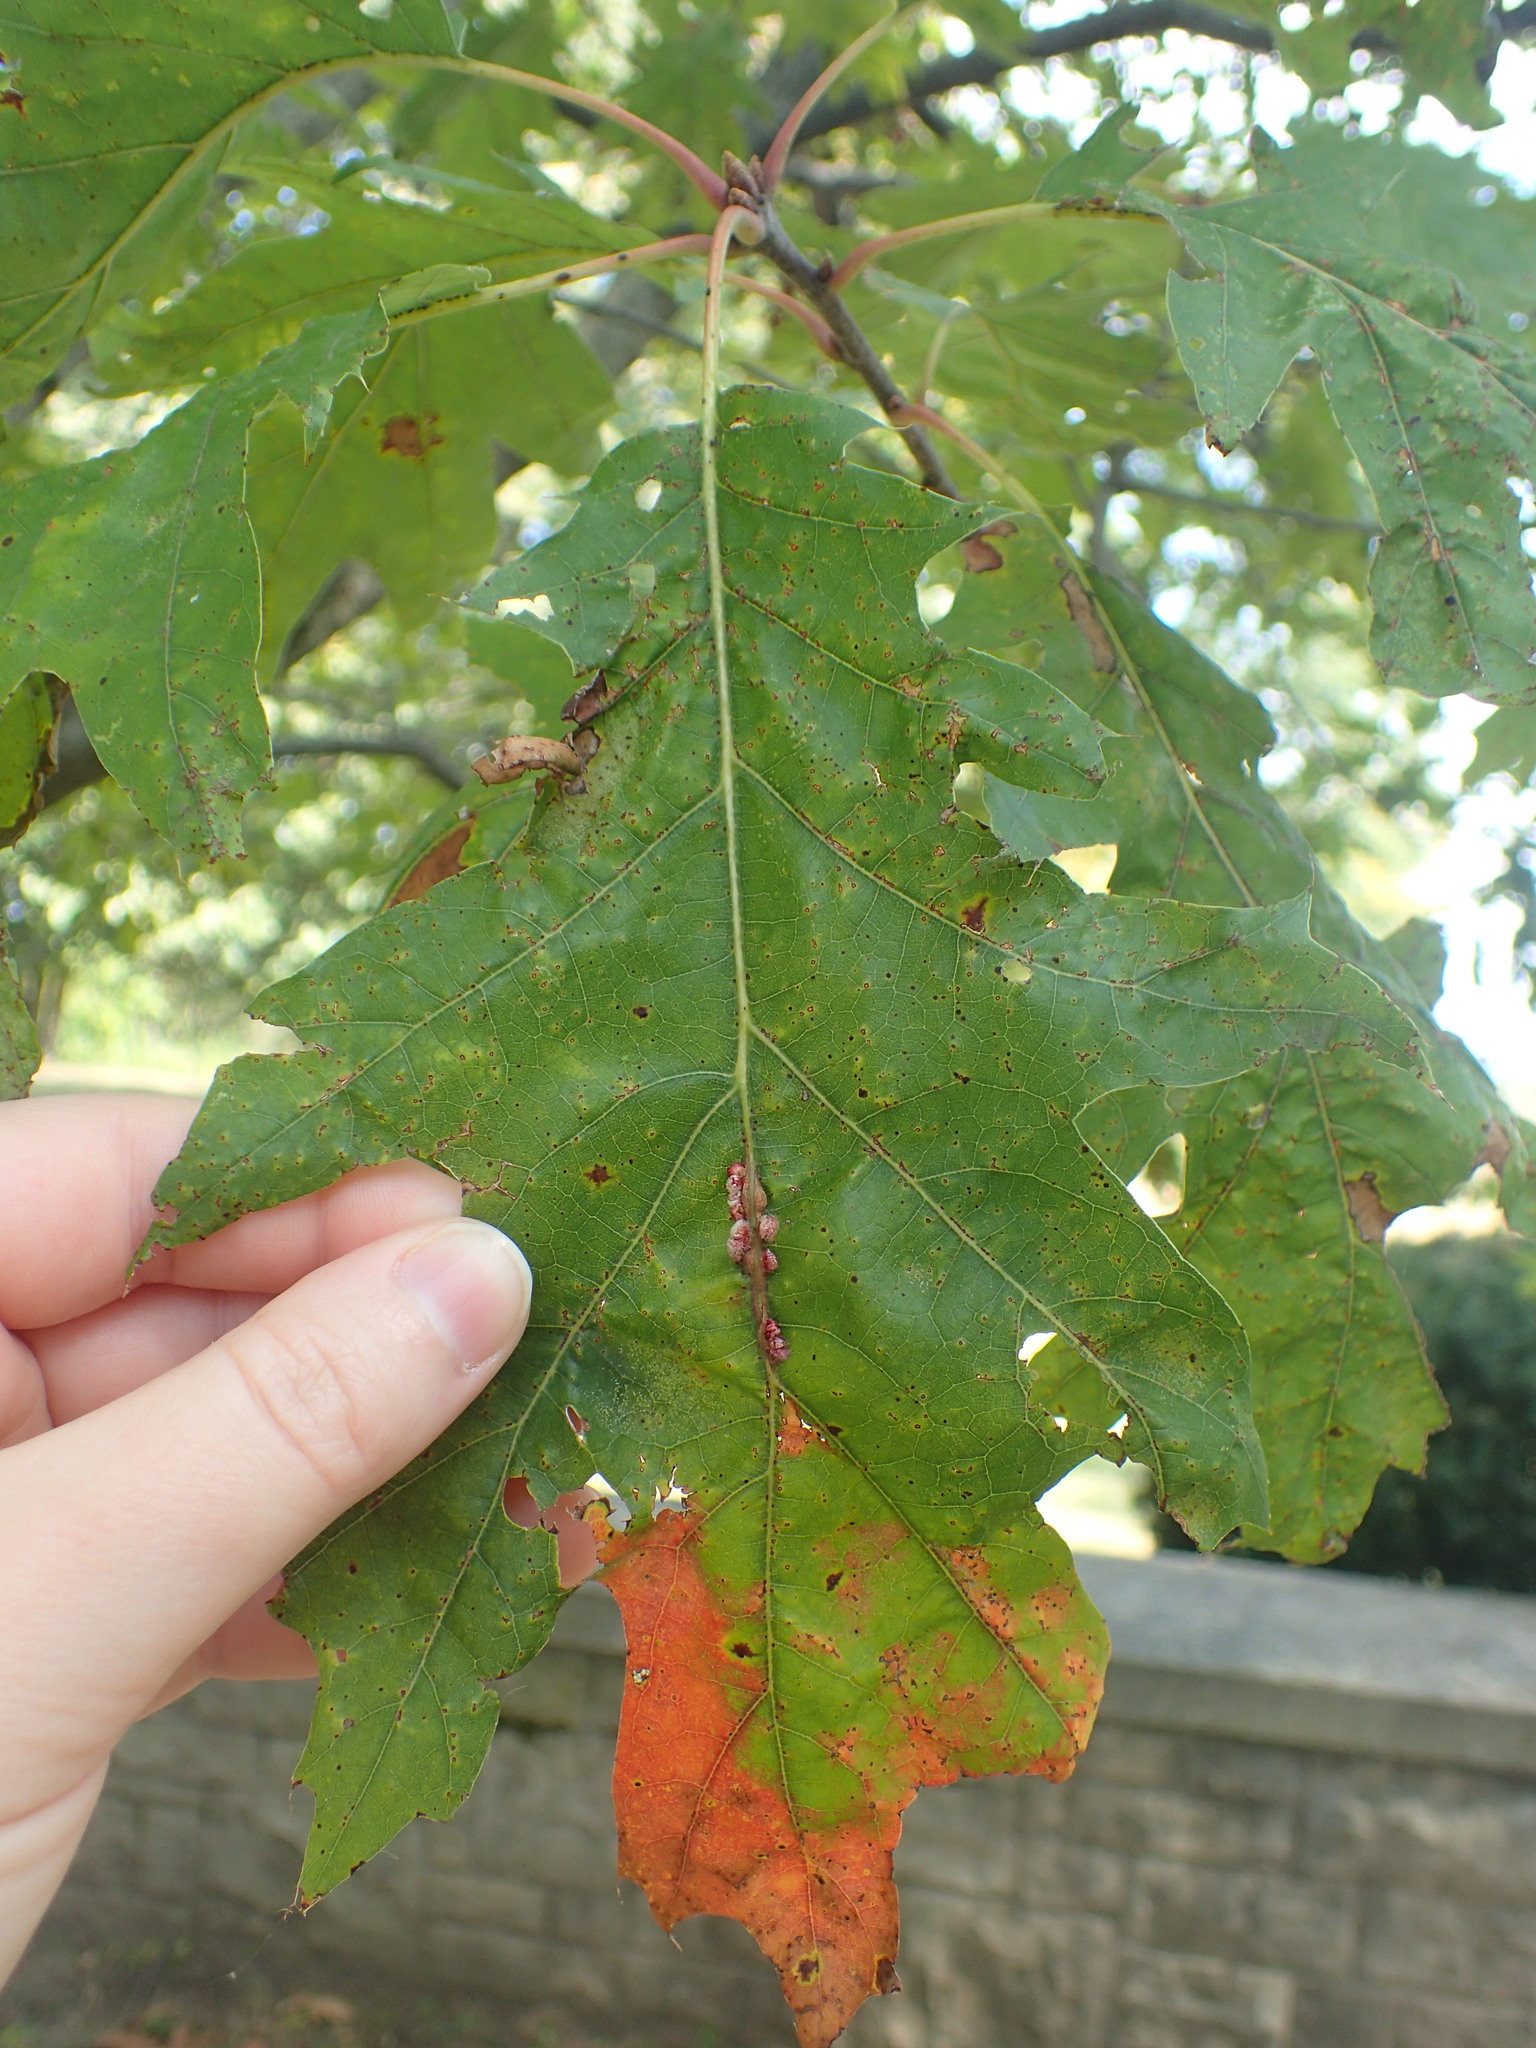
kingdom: Animalia
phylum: Arthropoda
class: Insecta
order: Hymenoptera
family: Cynipidae
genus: Callirhytis
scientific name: Callirhytis
